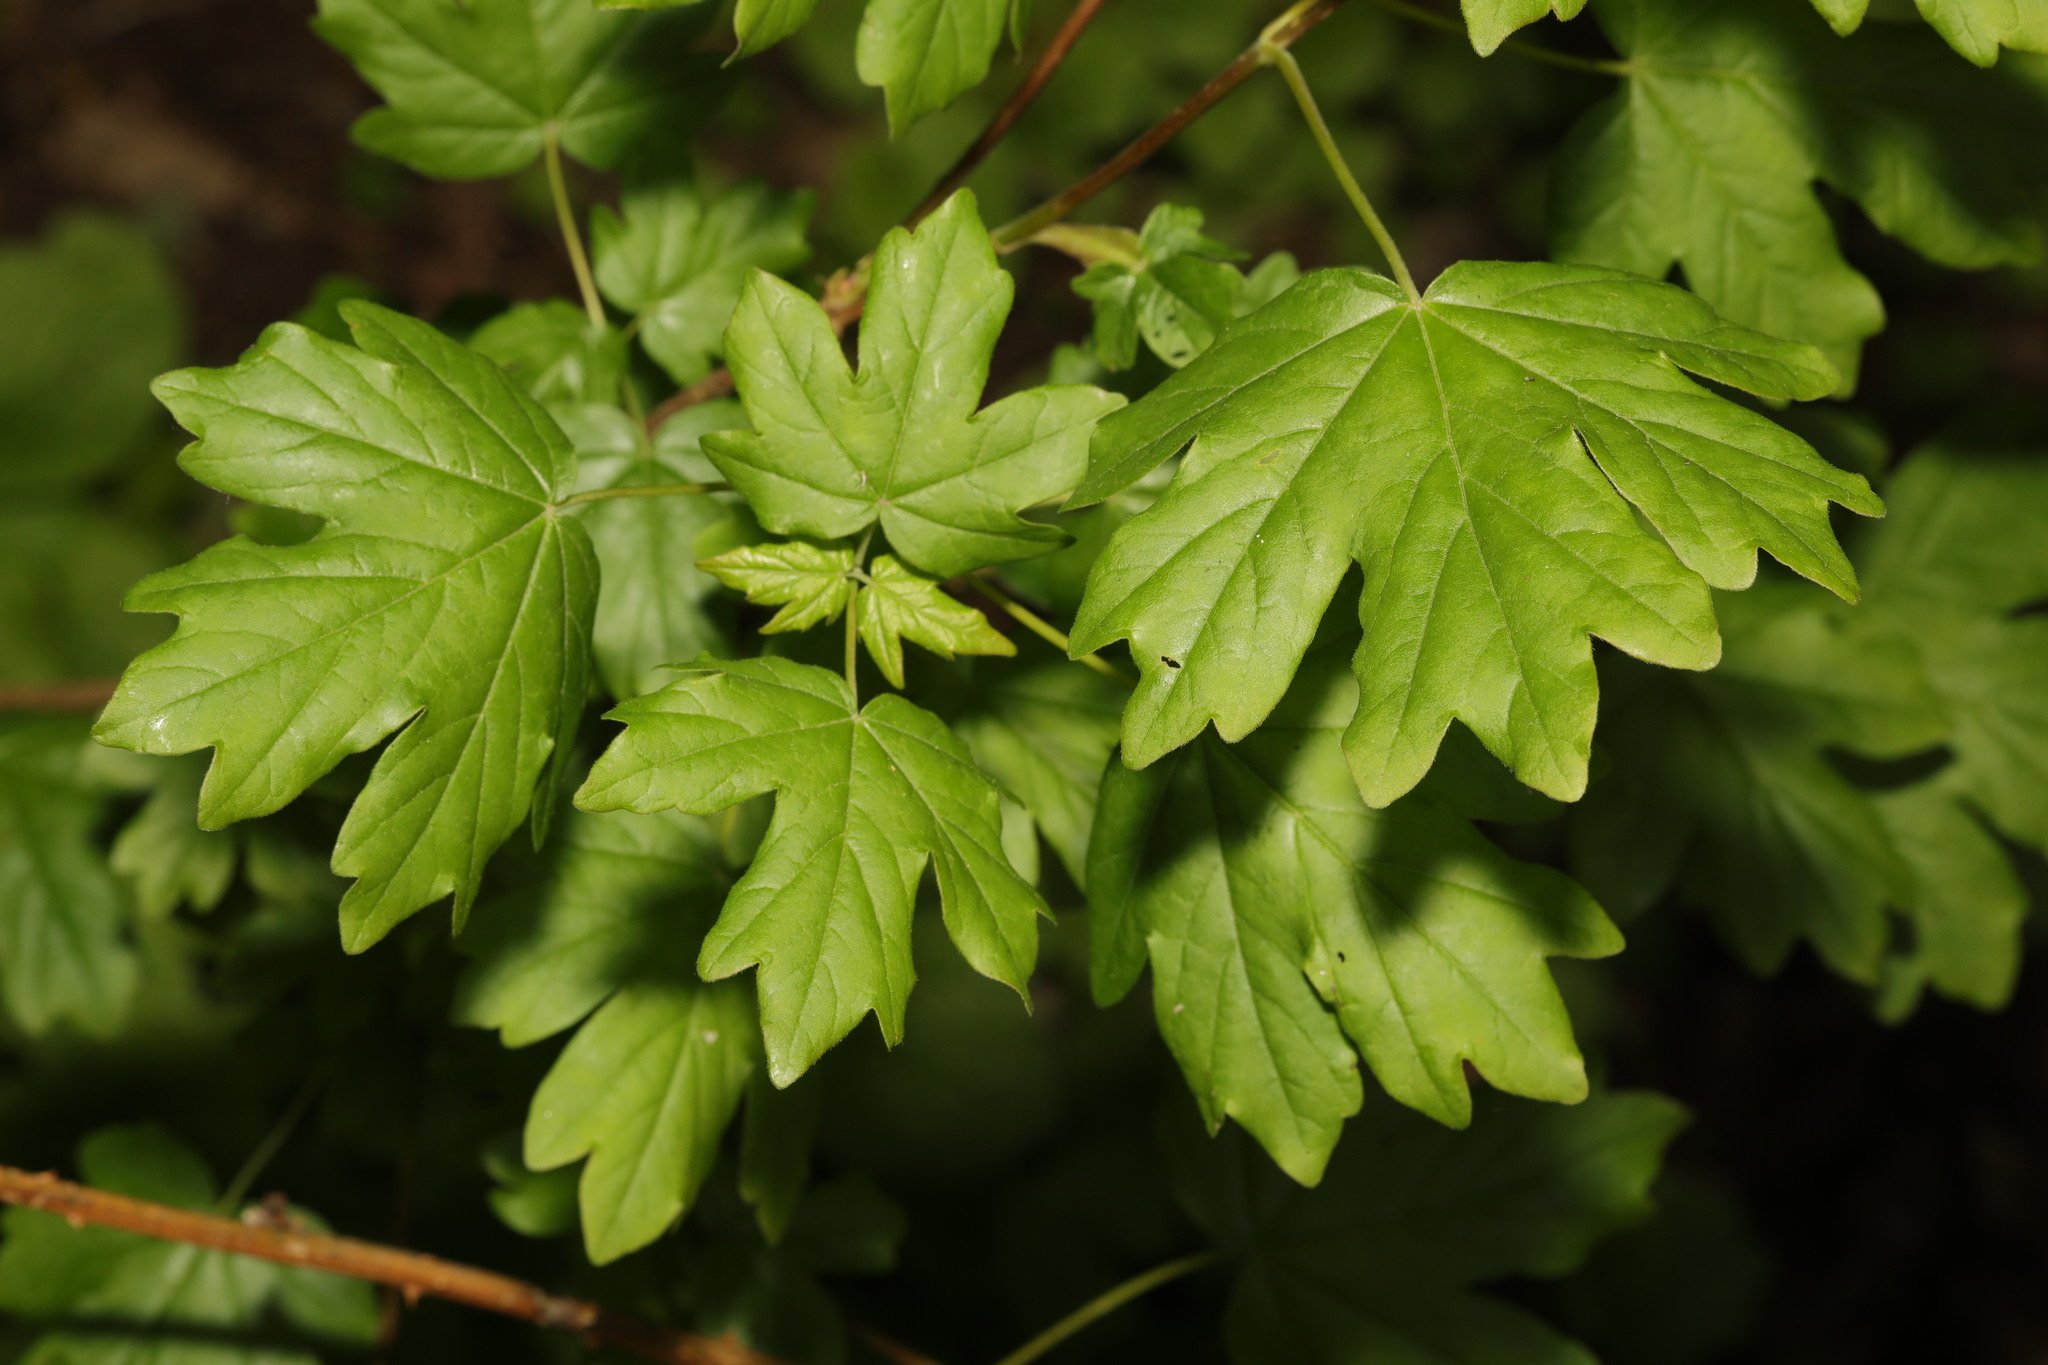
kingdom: Plantae
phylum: Tracheophyta
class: Magnoliopsida
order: Sapindales
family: Sapindaceae
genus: Acer
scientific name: Acer campestre
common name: Field maple
